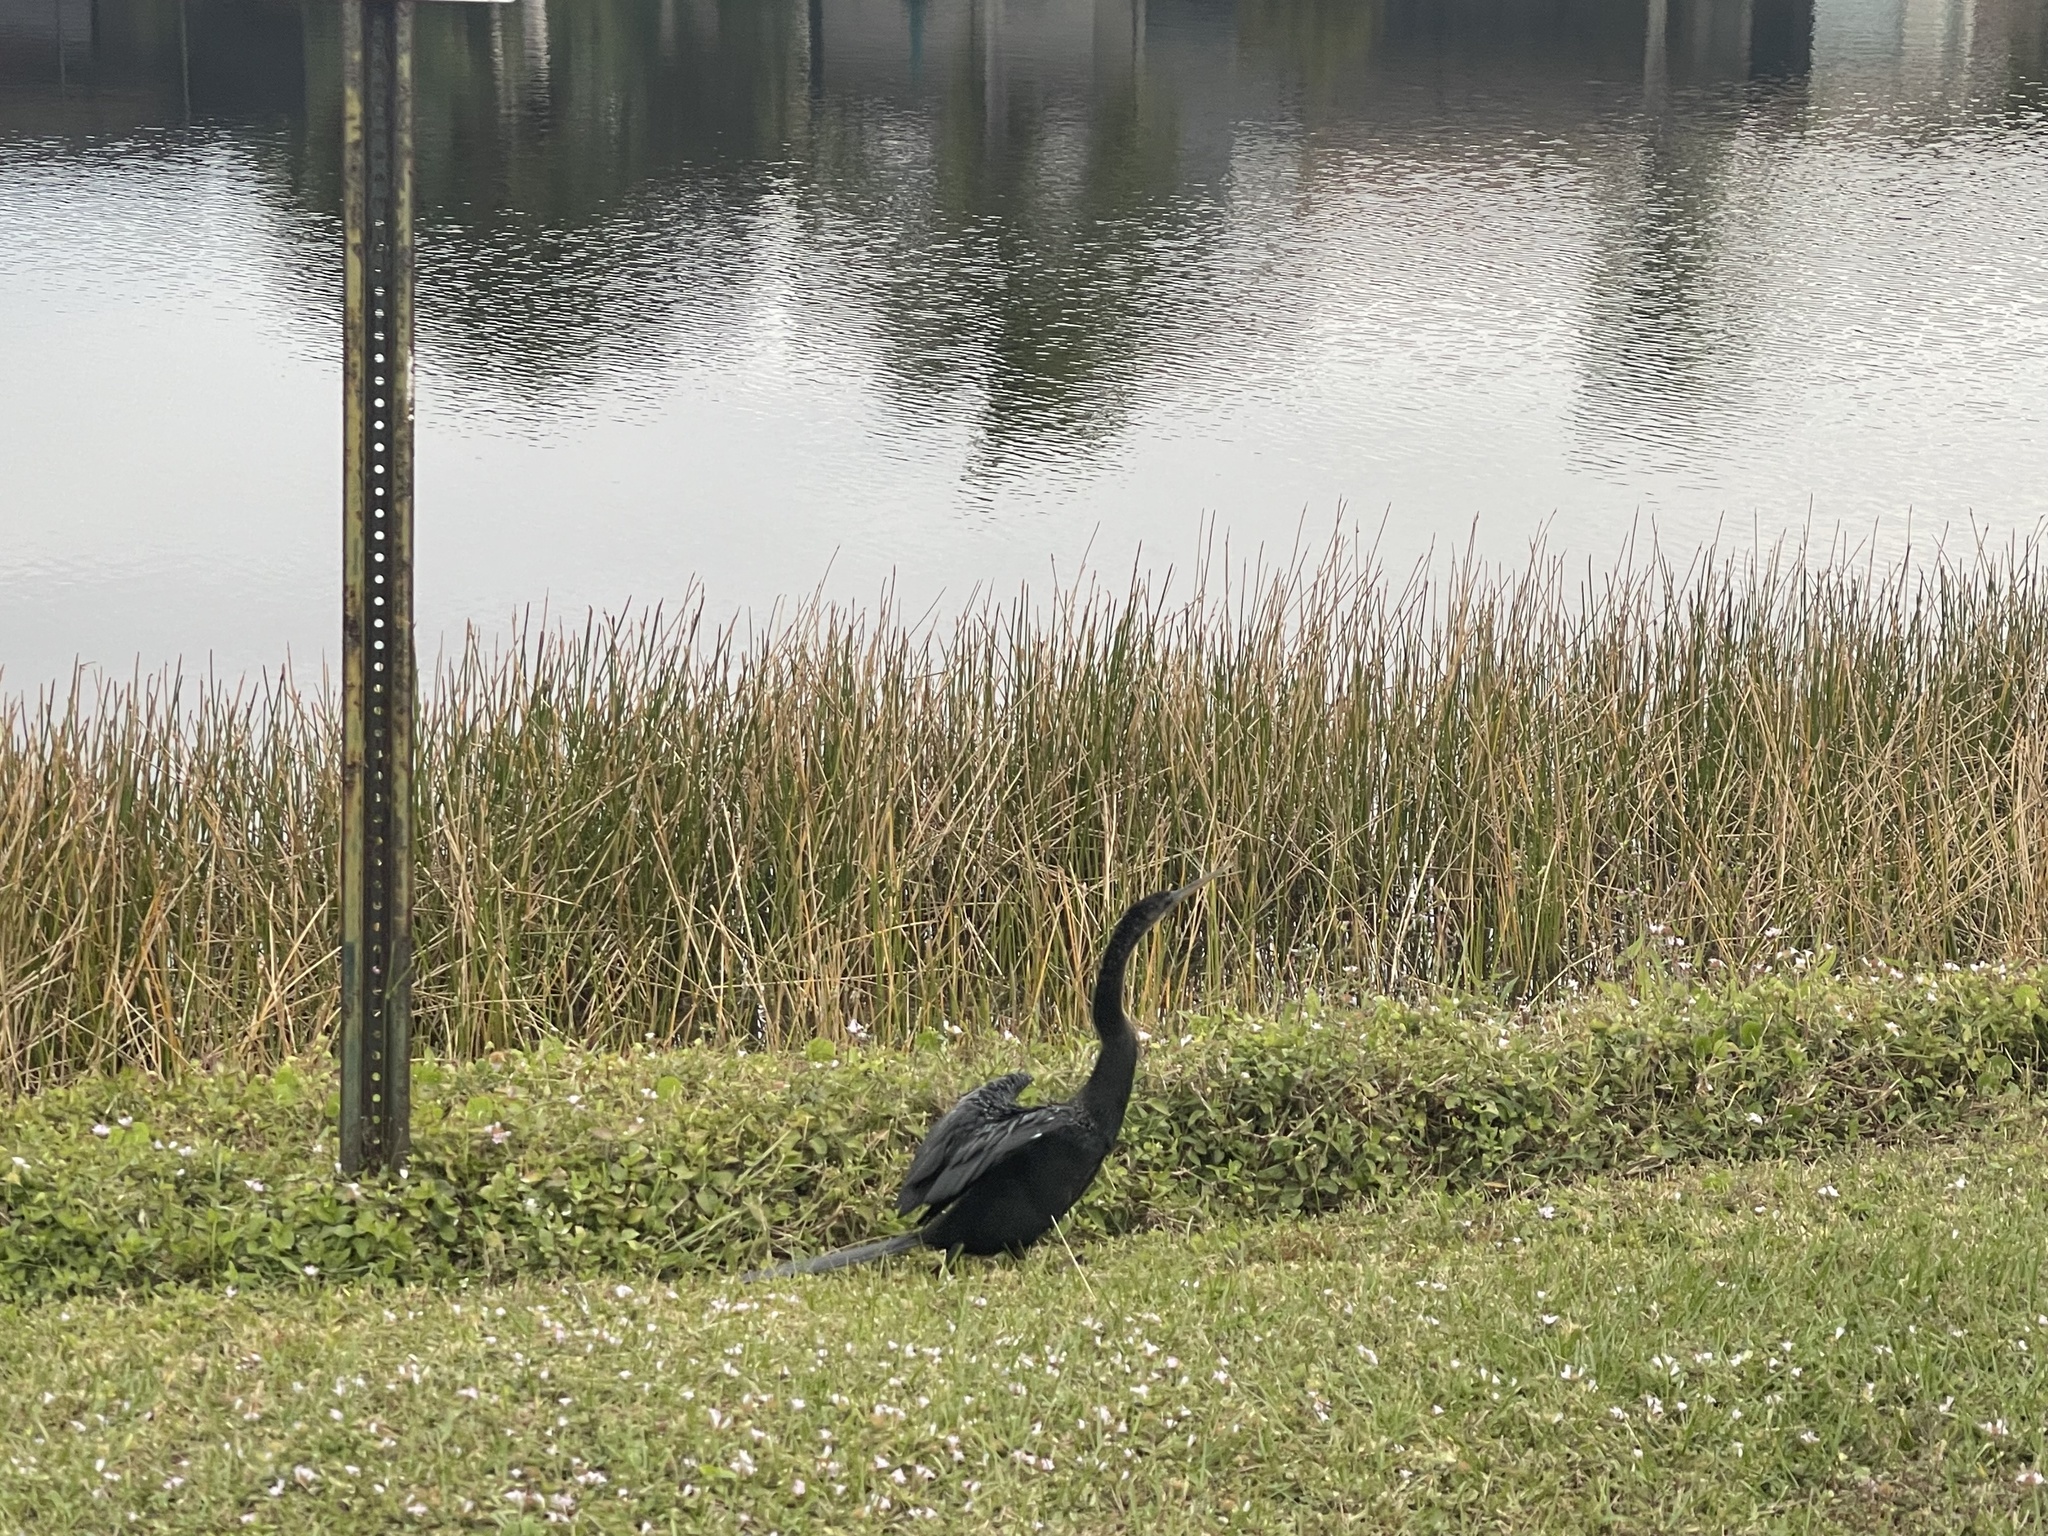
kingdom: Animalia
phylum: Chordata
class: Aves
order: Suliformes
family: Anhingidae
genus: Anhinga
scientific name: Anhinga anhinga
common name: Anhinga
